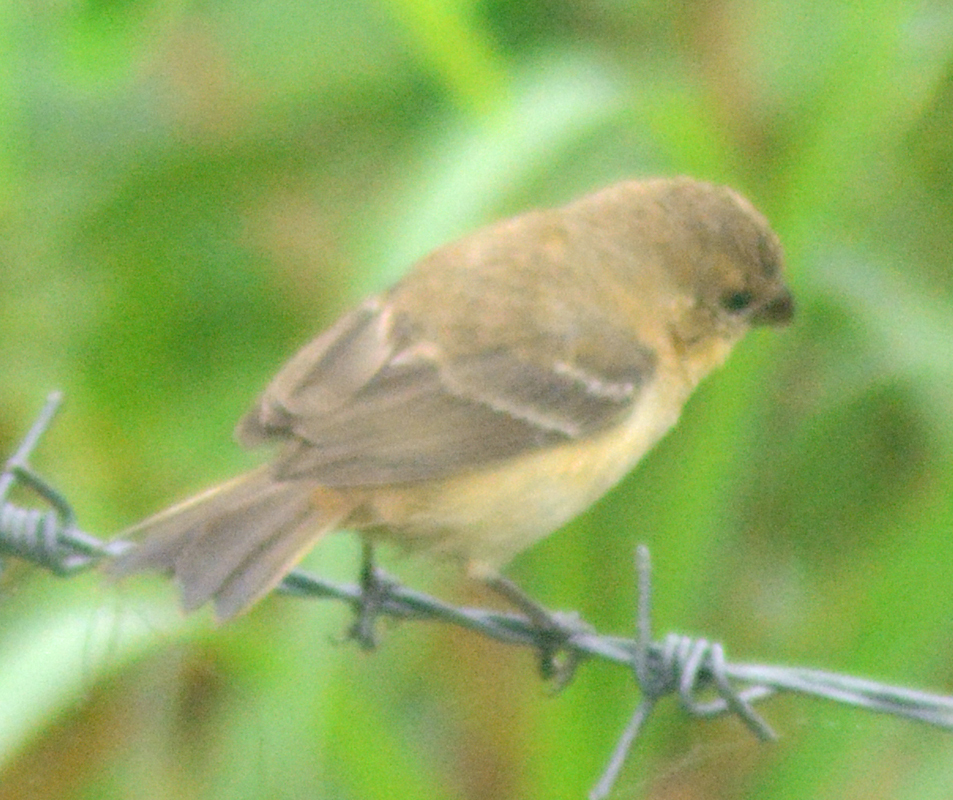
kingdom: Animalia
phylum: Chordata
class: Aves
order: Passeriformes
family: Thraupidae
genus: Sporophila
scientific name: Sporophila morelleti
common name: Morelet's seedeater
